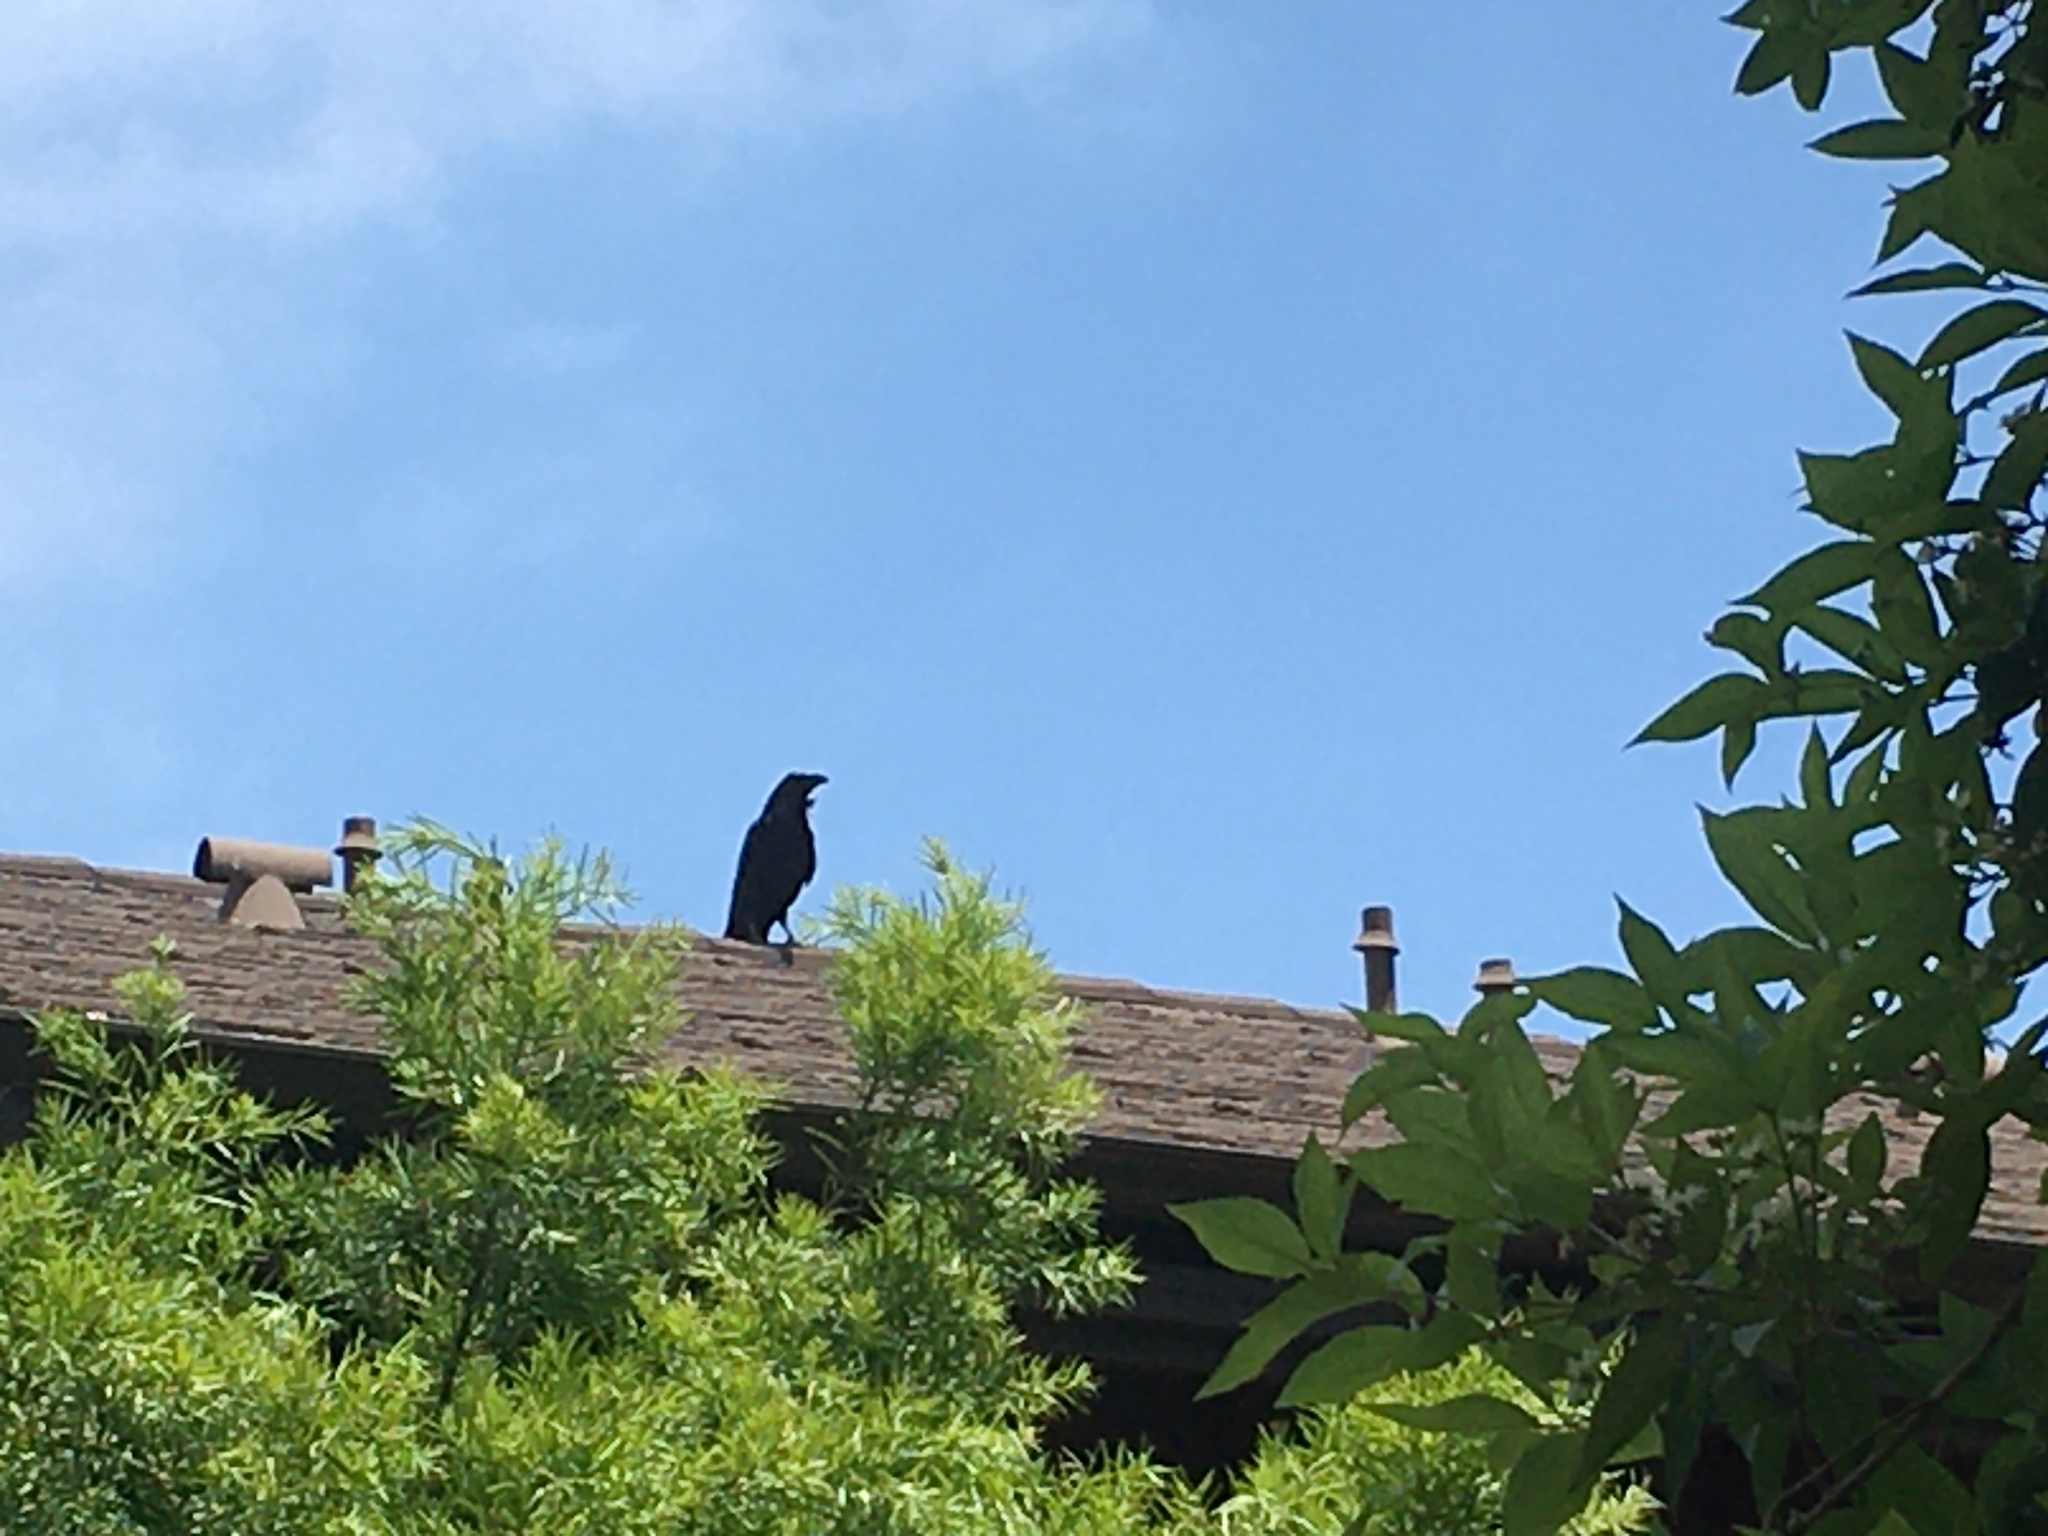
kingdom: Animalia
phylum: Chordata
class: Aves
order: Passeriformes
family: Corvidae
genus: Corvus
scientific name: Corvus corax
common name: Common raven
